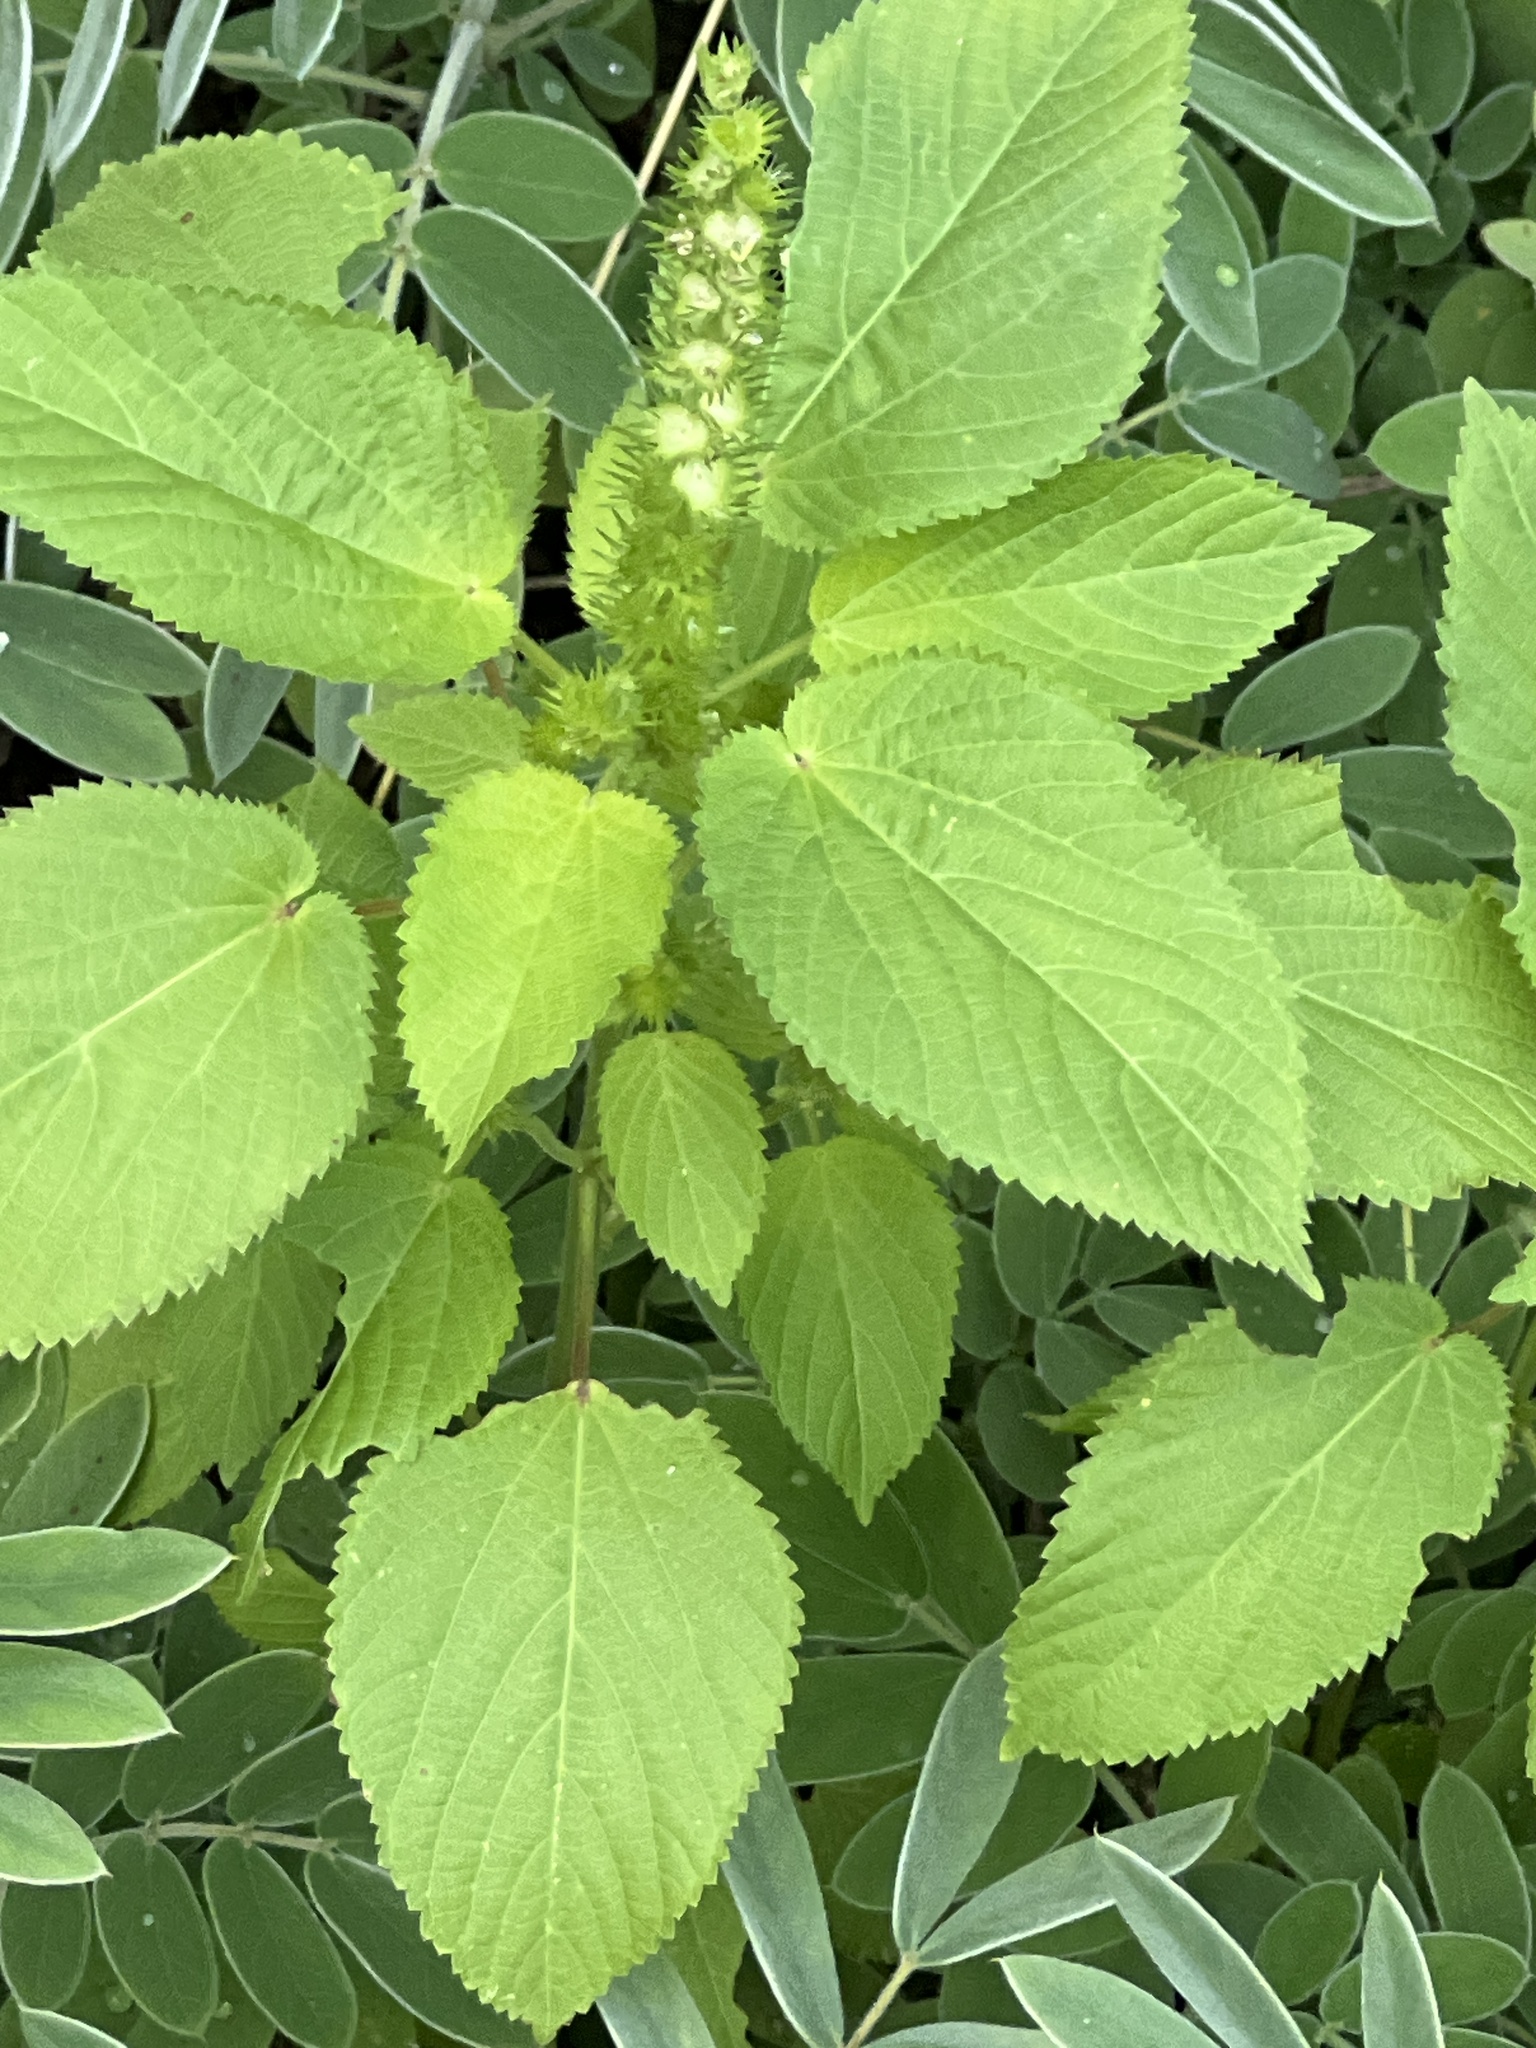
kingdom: Plantae
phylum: Tracheophyta
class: Magnoliopsida
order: Malpighiales
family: Euphorbiaceae
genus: Acalypha
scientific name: Acalypha ostryifolia
